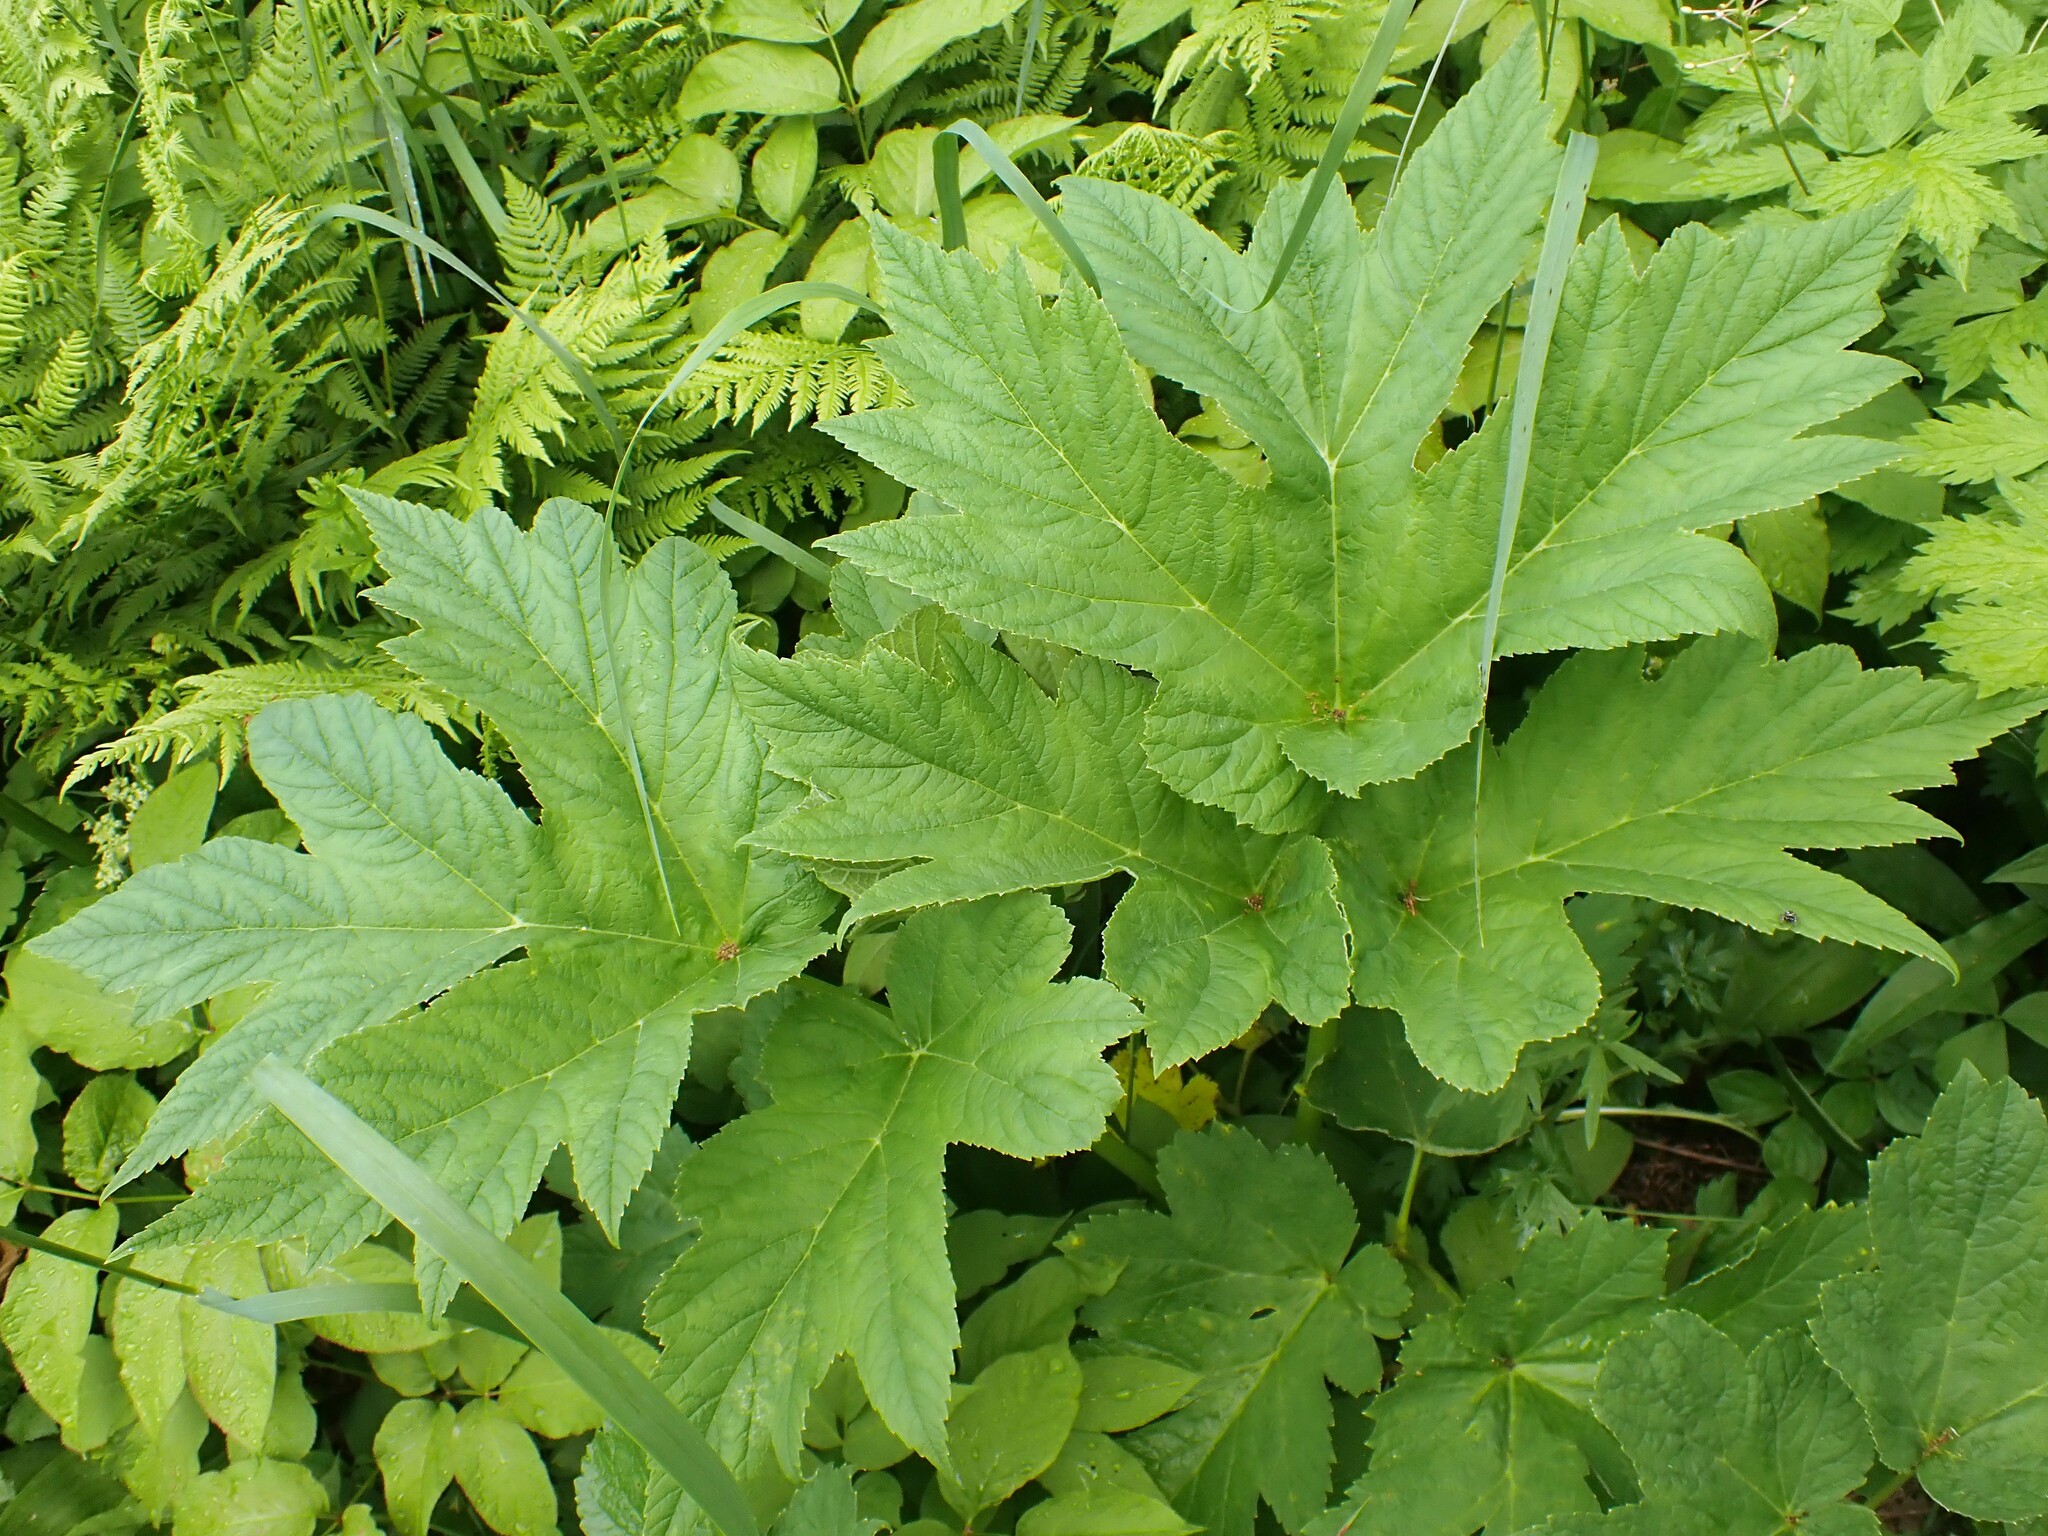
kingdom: Plantae
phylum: Tracheophyta
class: Magnoliopsida
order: Apiales
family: Apiaceae
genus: Heracleum
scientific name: Heracleum maximum
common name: American cow parsnip
